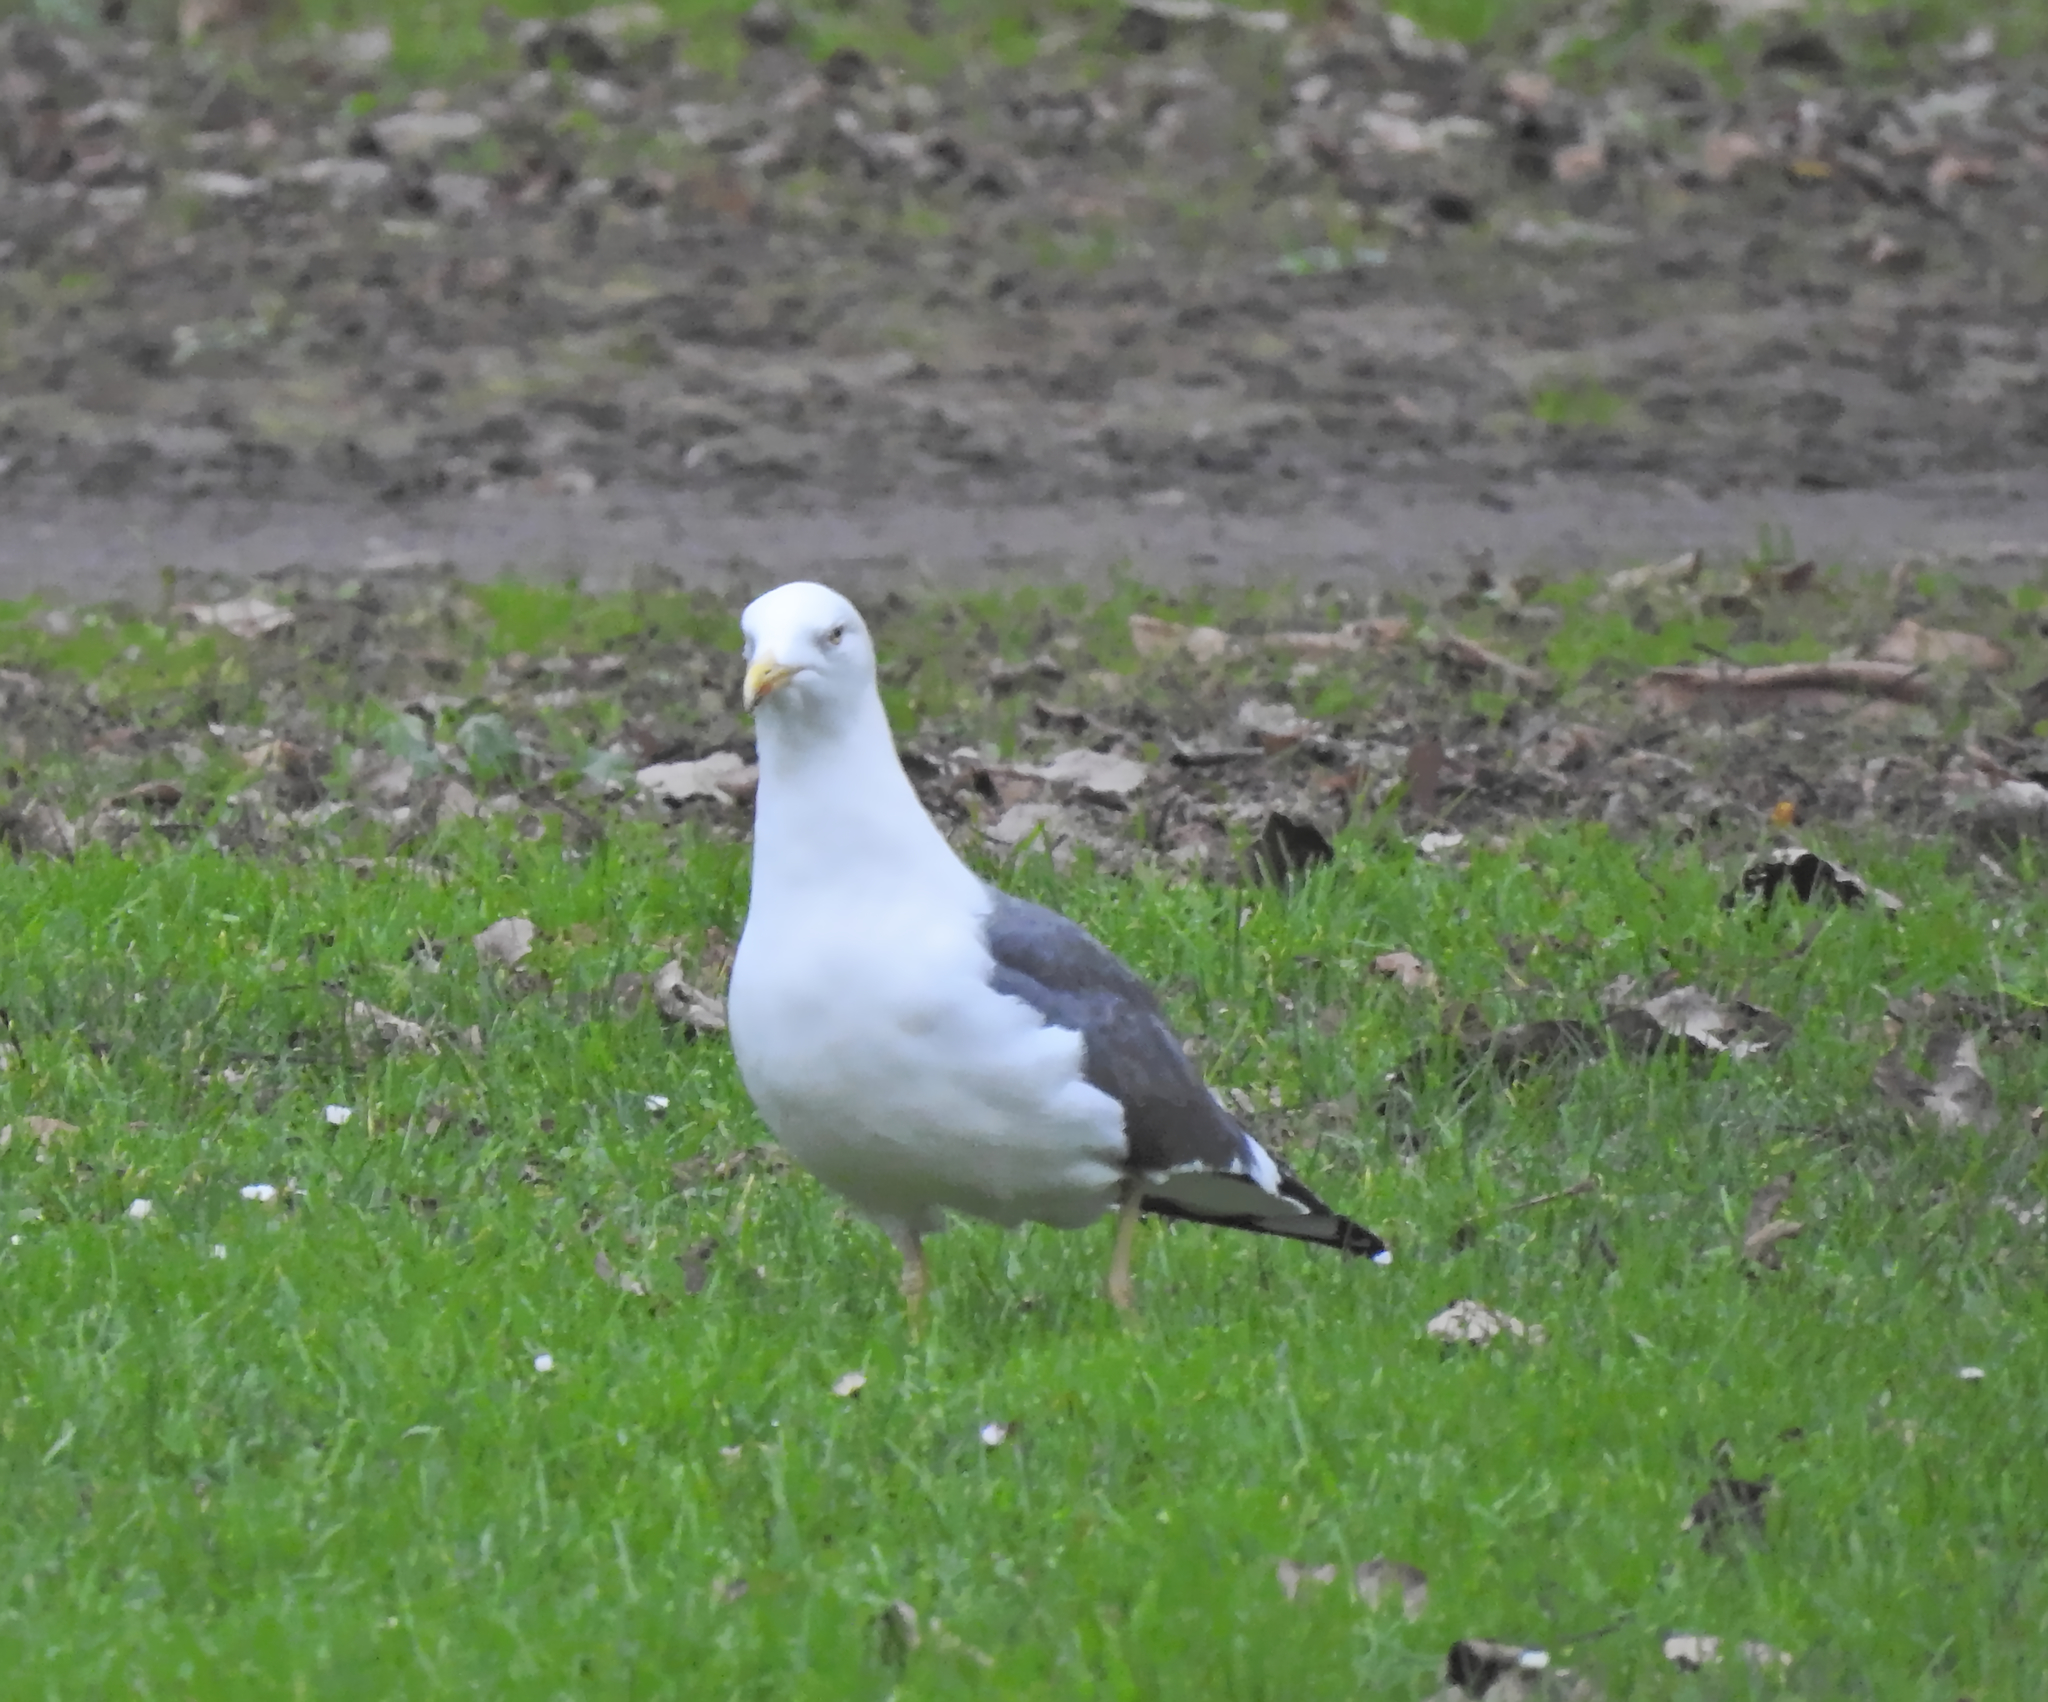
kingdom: Animalia
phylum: Chordata
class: Aves
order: Charadriiformes
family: Laridae
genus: Larus
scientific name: Larus fuscus
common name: Lesser black-backed gull
